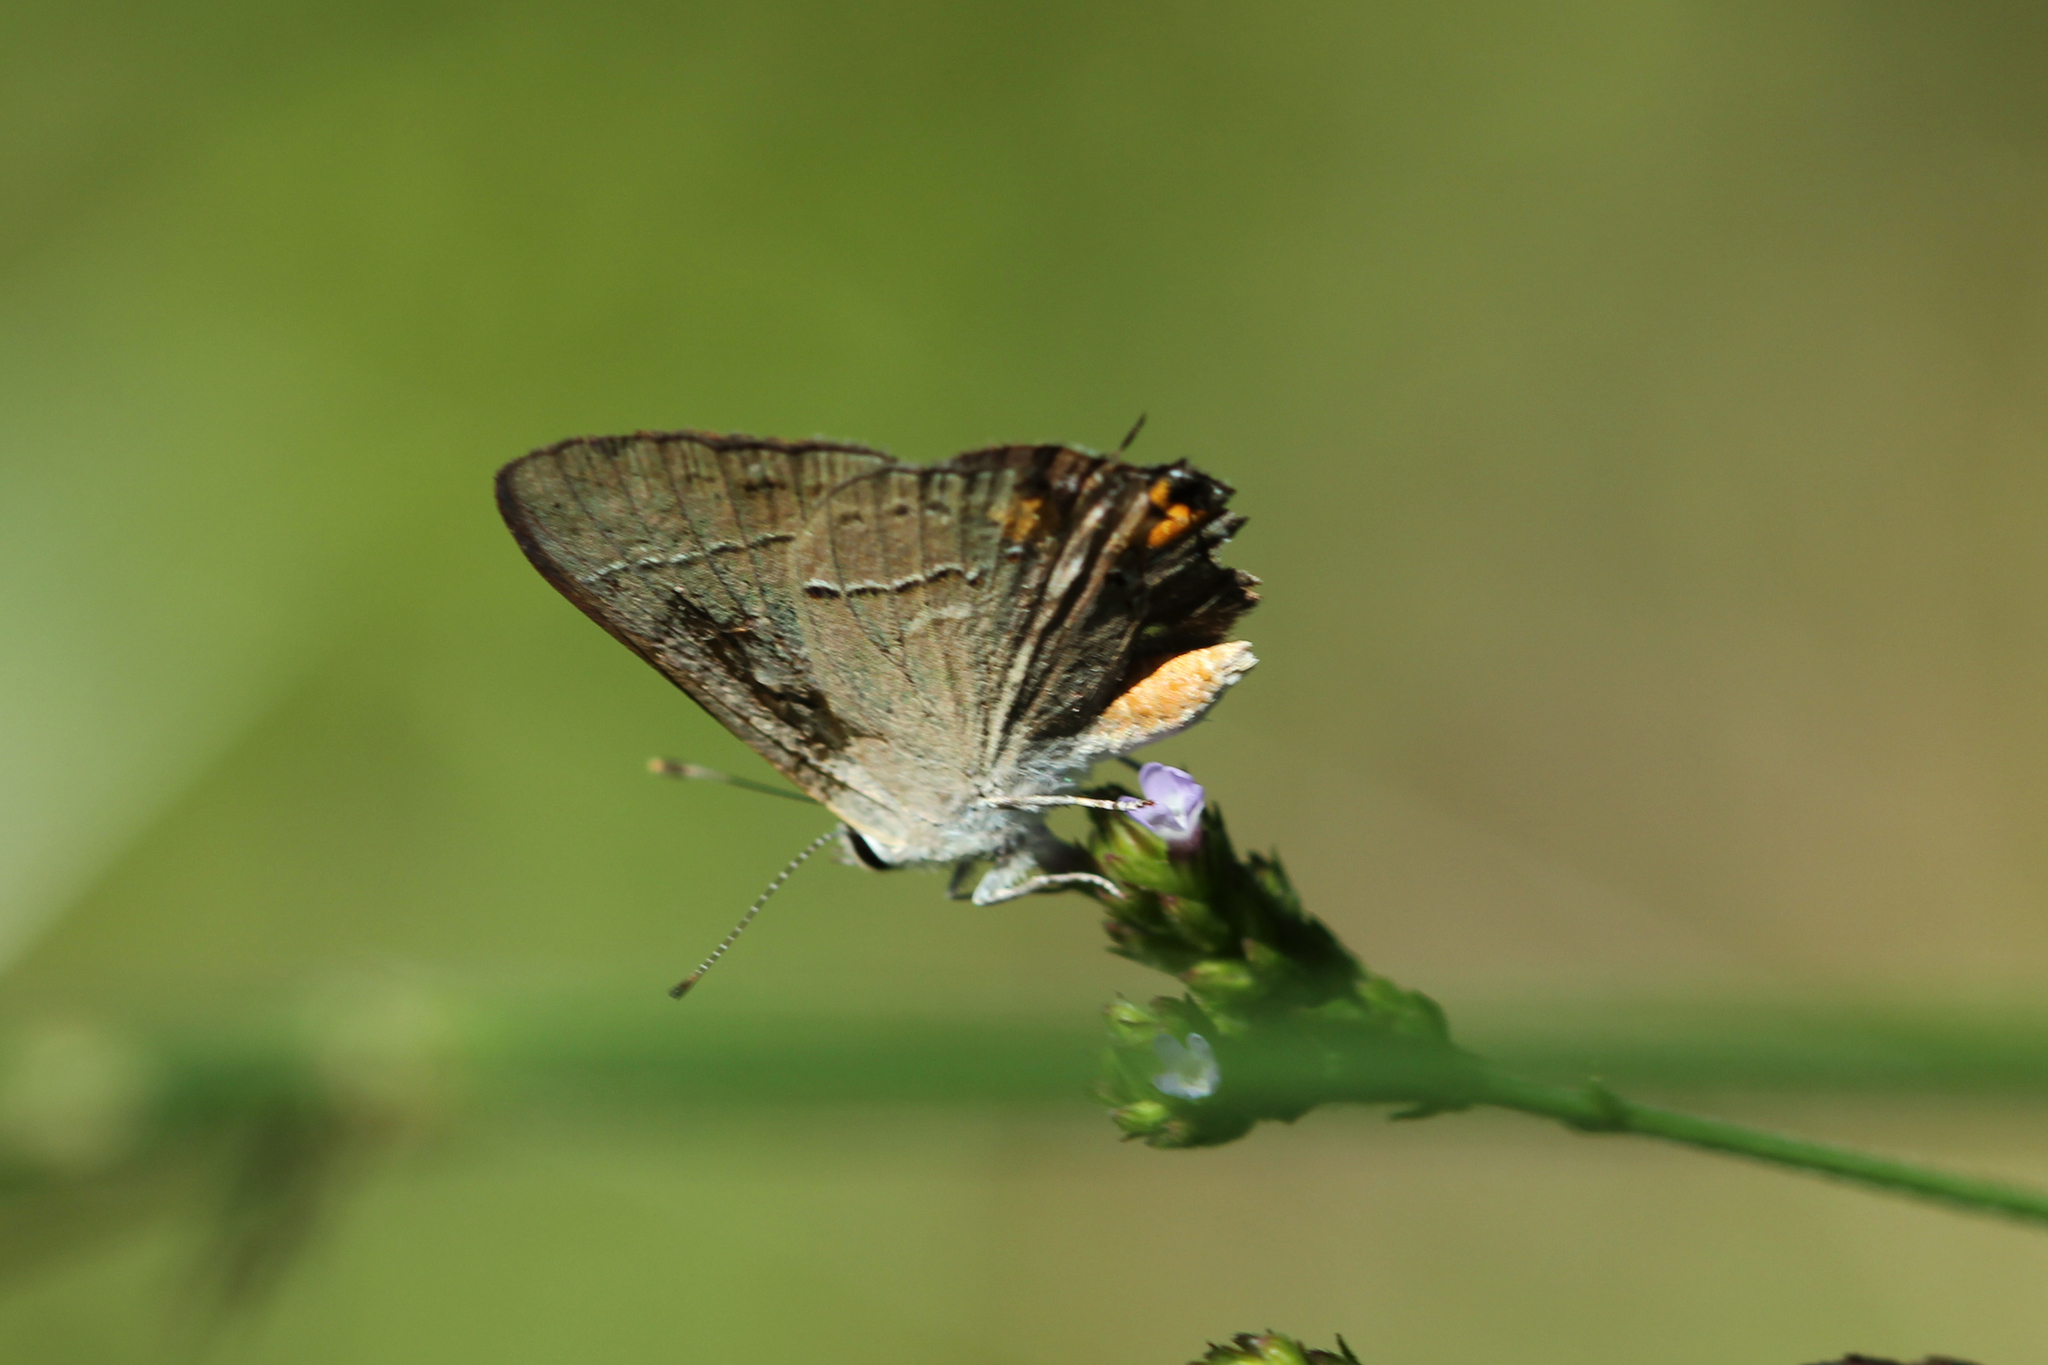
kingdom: Animalia
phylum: Arthropoda
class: Insecta
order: Lepidoptera
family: Lycaenidae
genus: Strymon
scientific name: Strymon melinus
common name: Gray hairstreak
